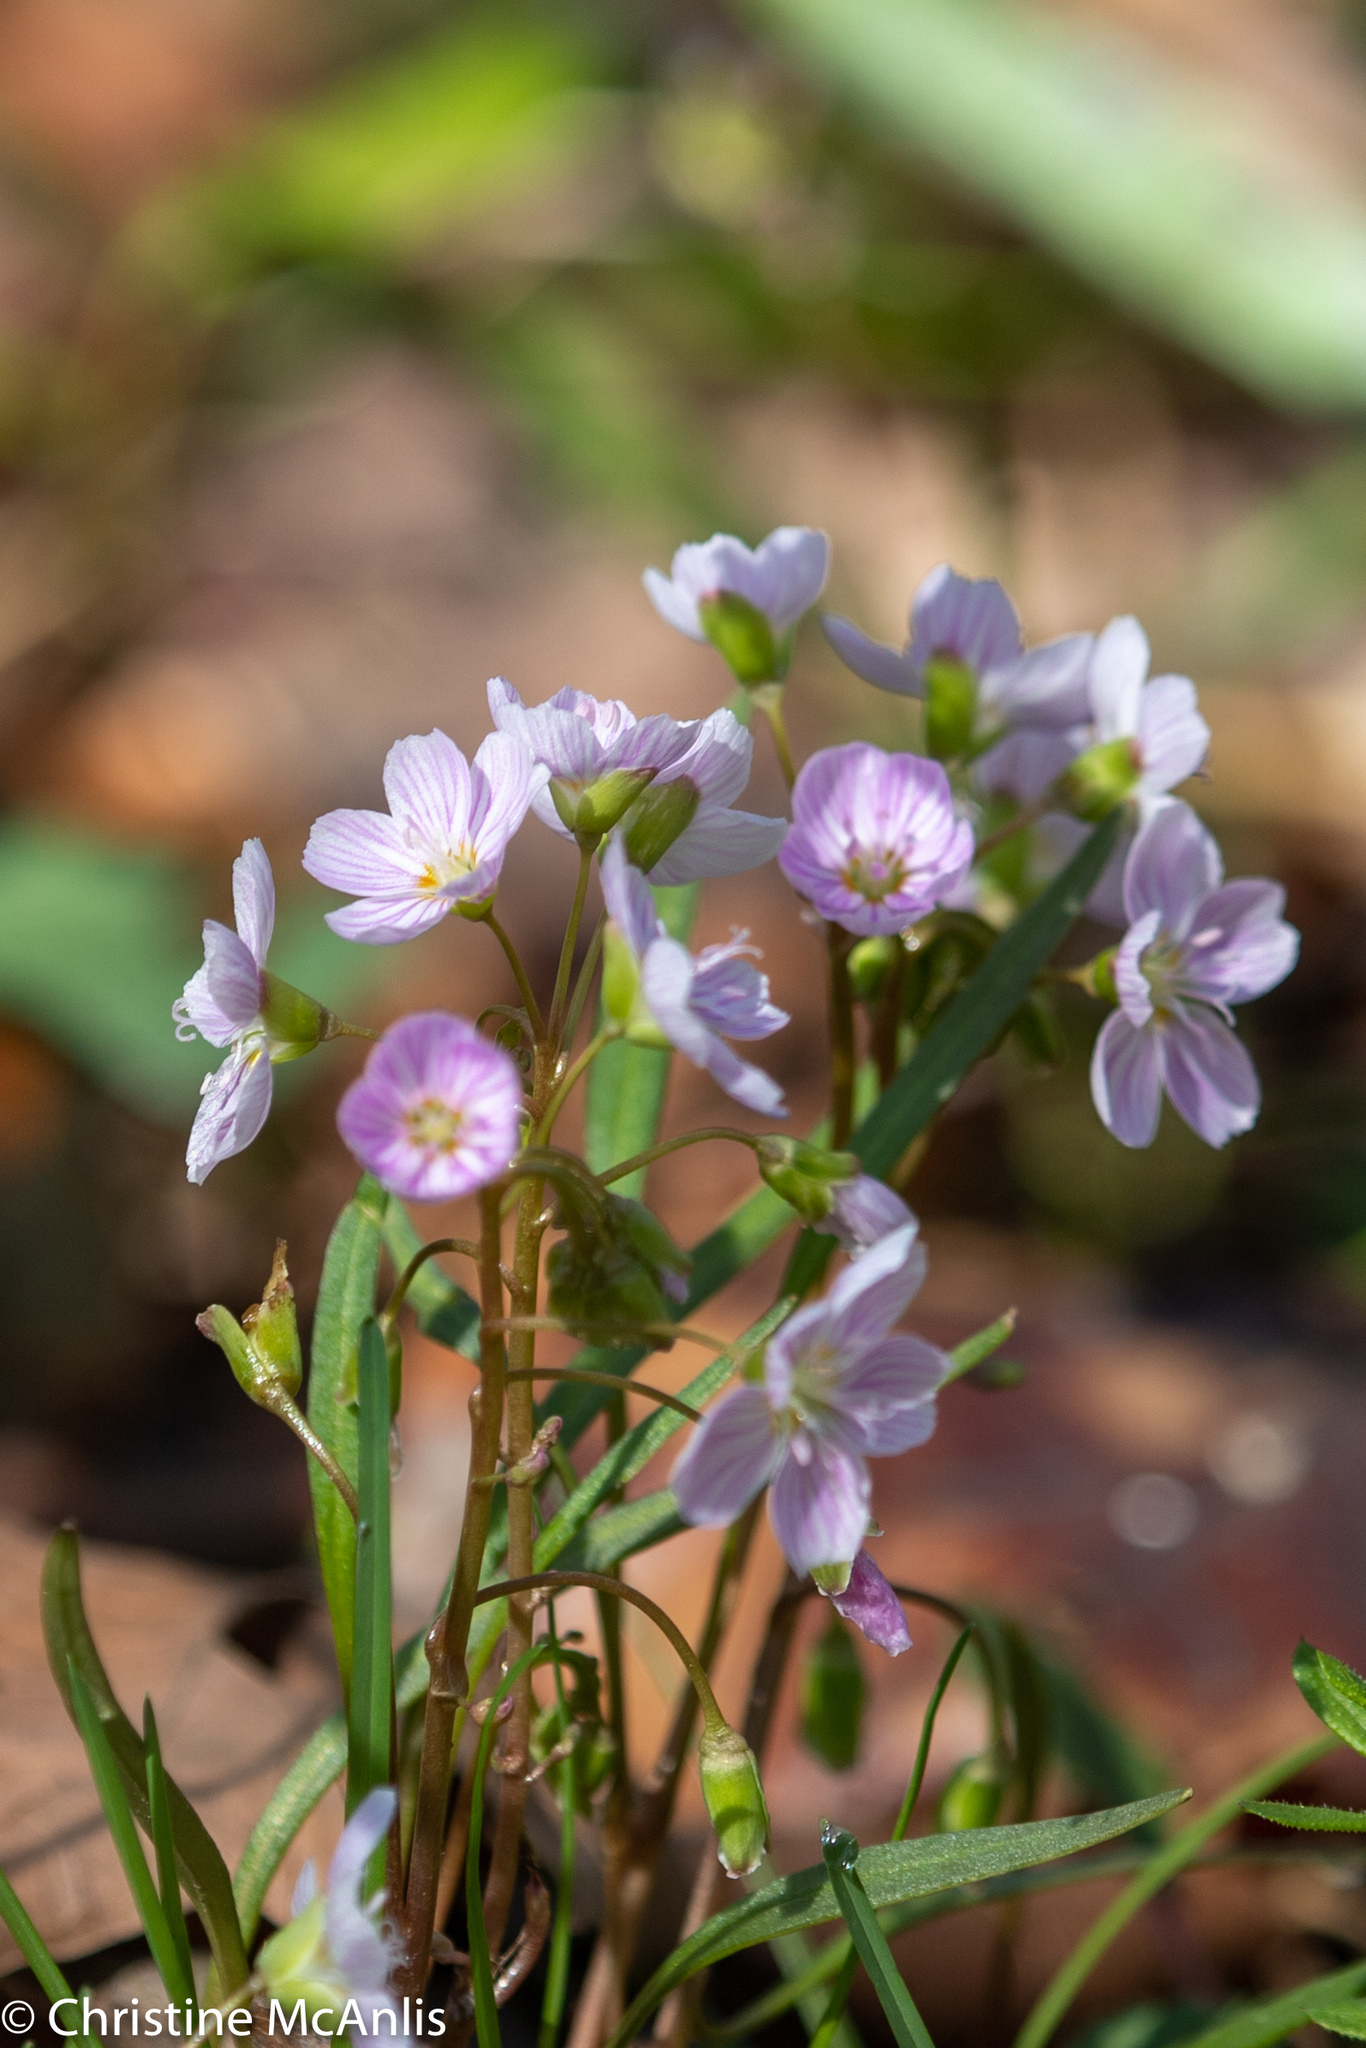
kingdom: Plantae
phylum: Tracheophyta
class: Magnoliopsida
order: Caryophyllales
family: Montiaceae
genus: Claytonia
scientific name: Claytonia virginica
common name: Virginia springbeauty
